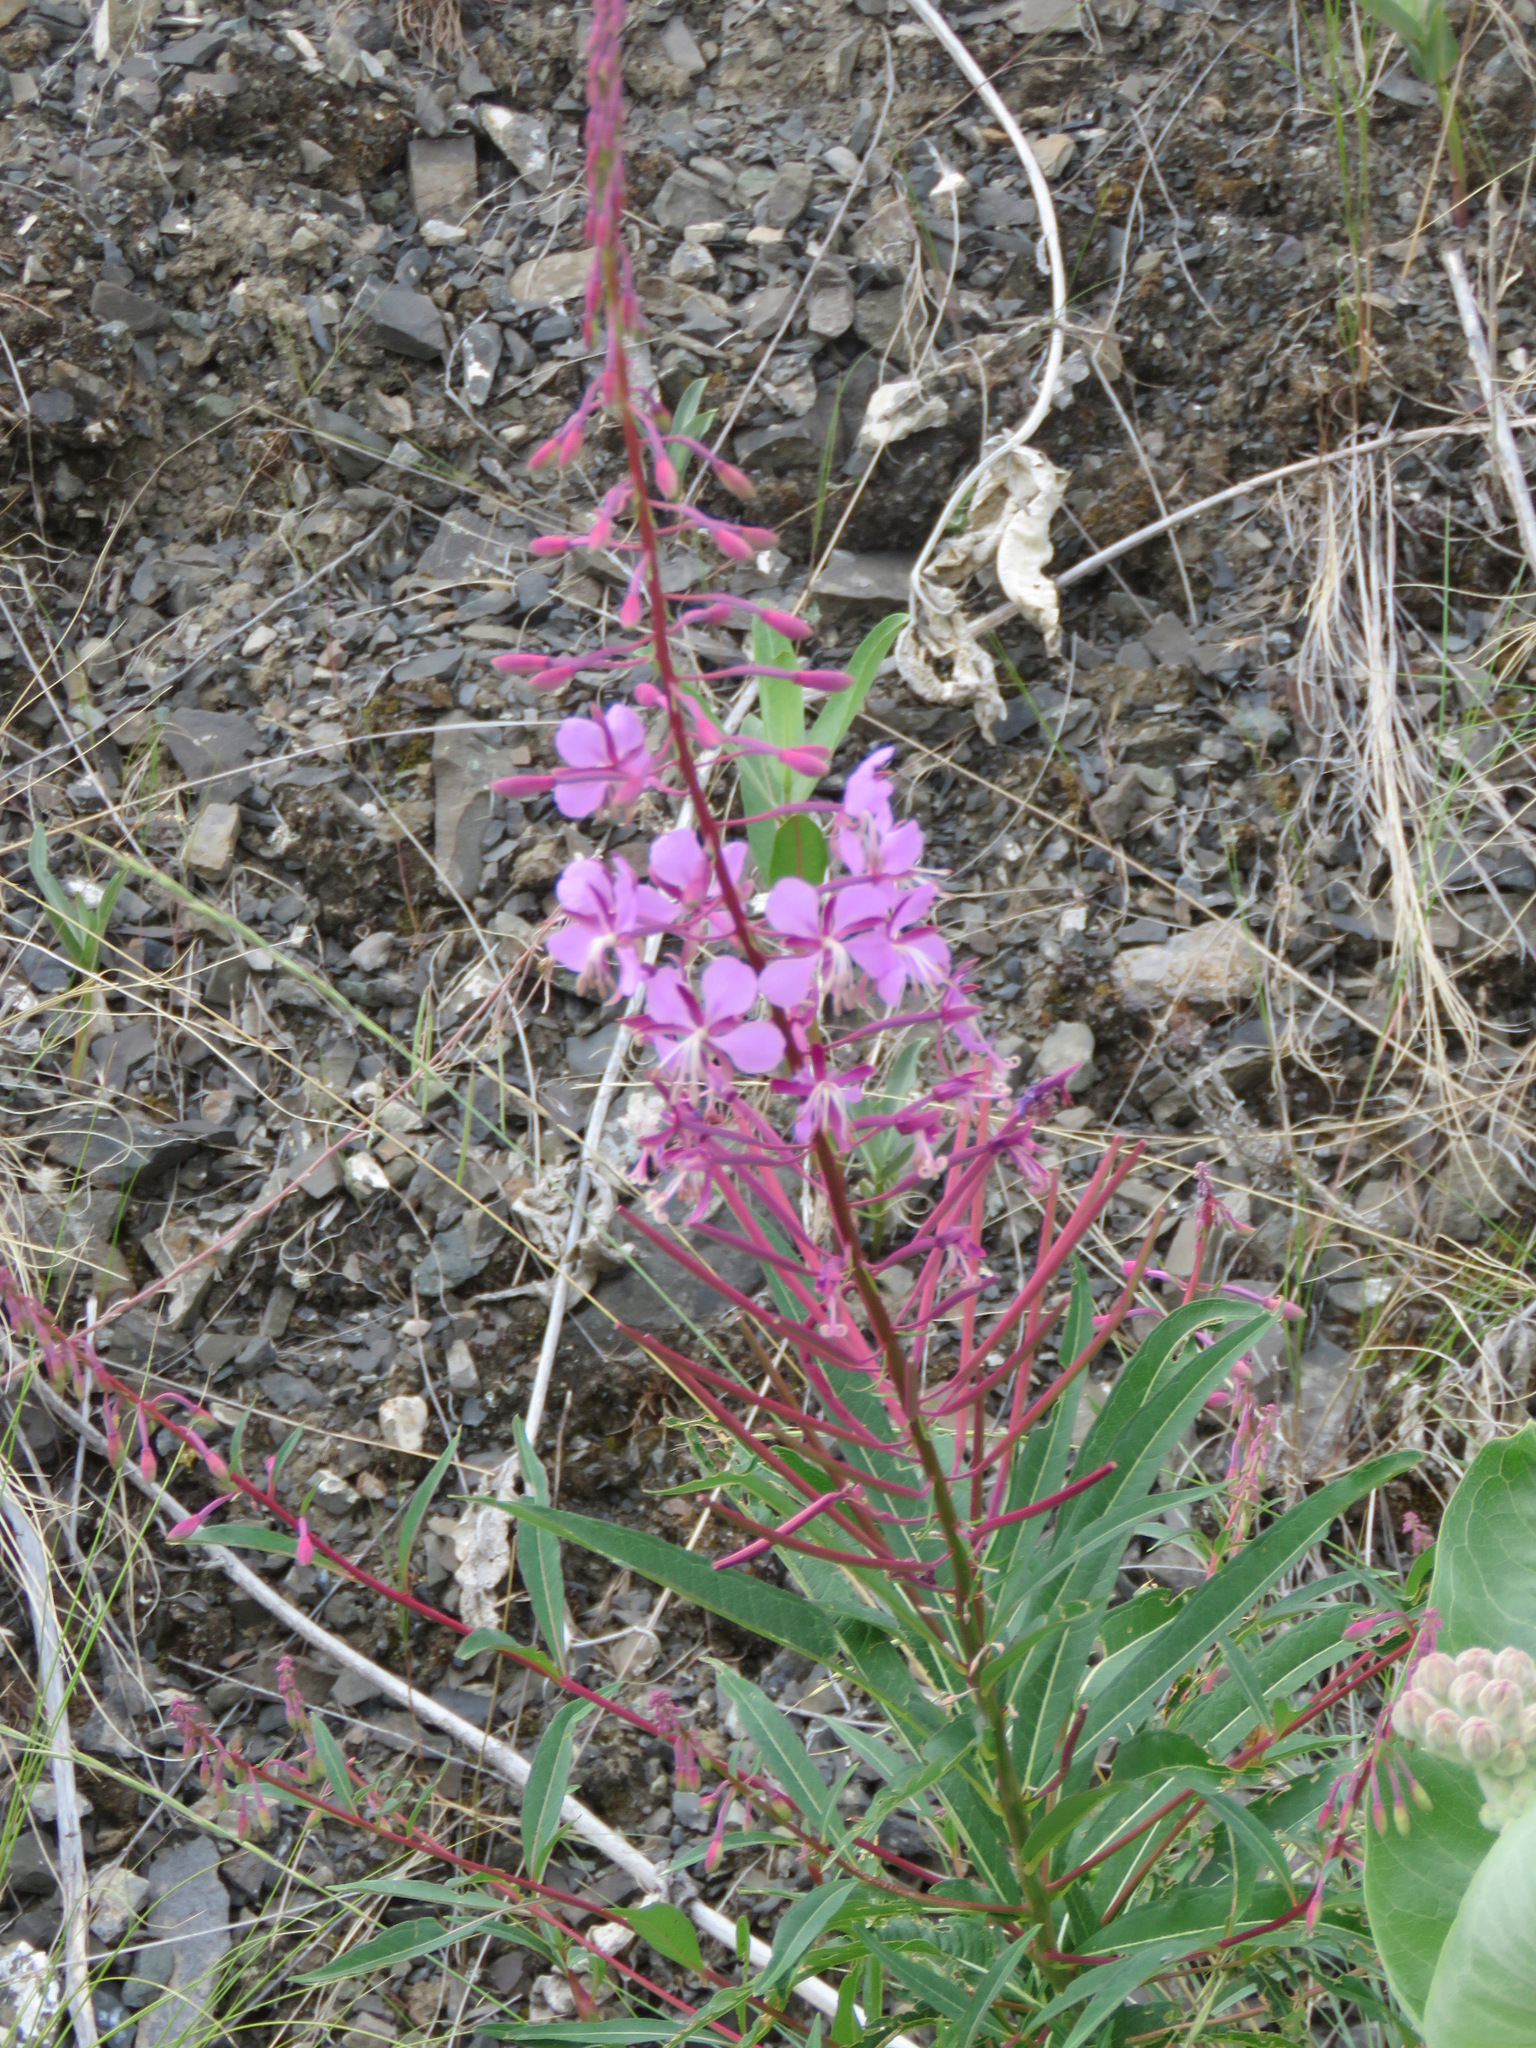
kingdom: Plantae
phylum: Tracheophyta
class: Magnoliopsida
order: Myrtales
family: Onagraceae
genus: Chamaenerion
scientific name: Chamaenerion angustifolium
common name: Fireweed
